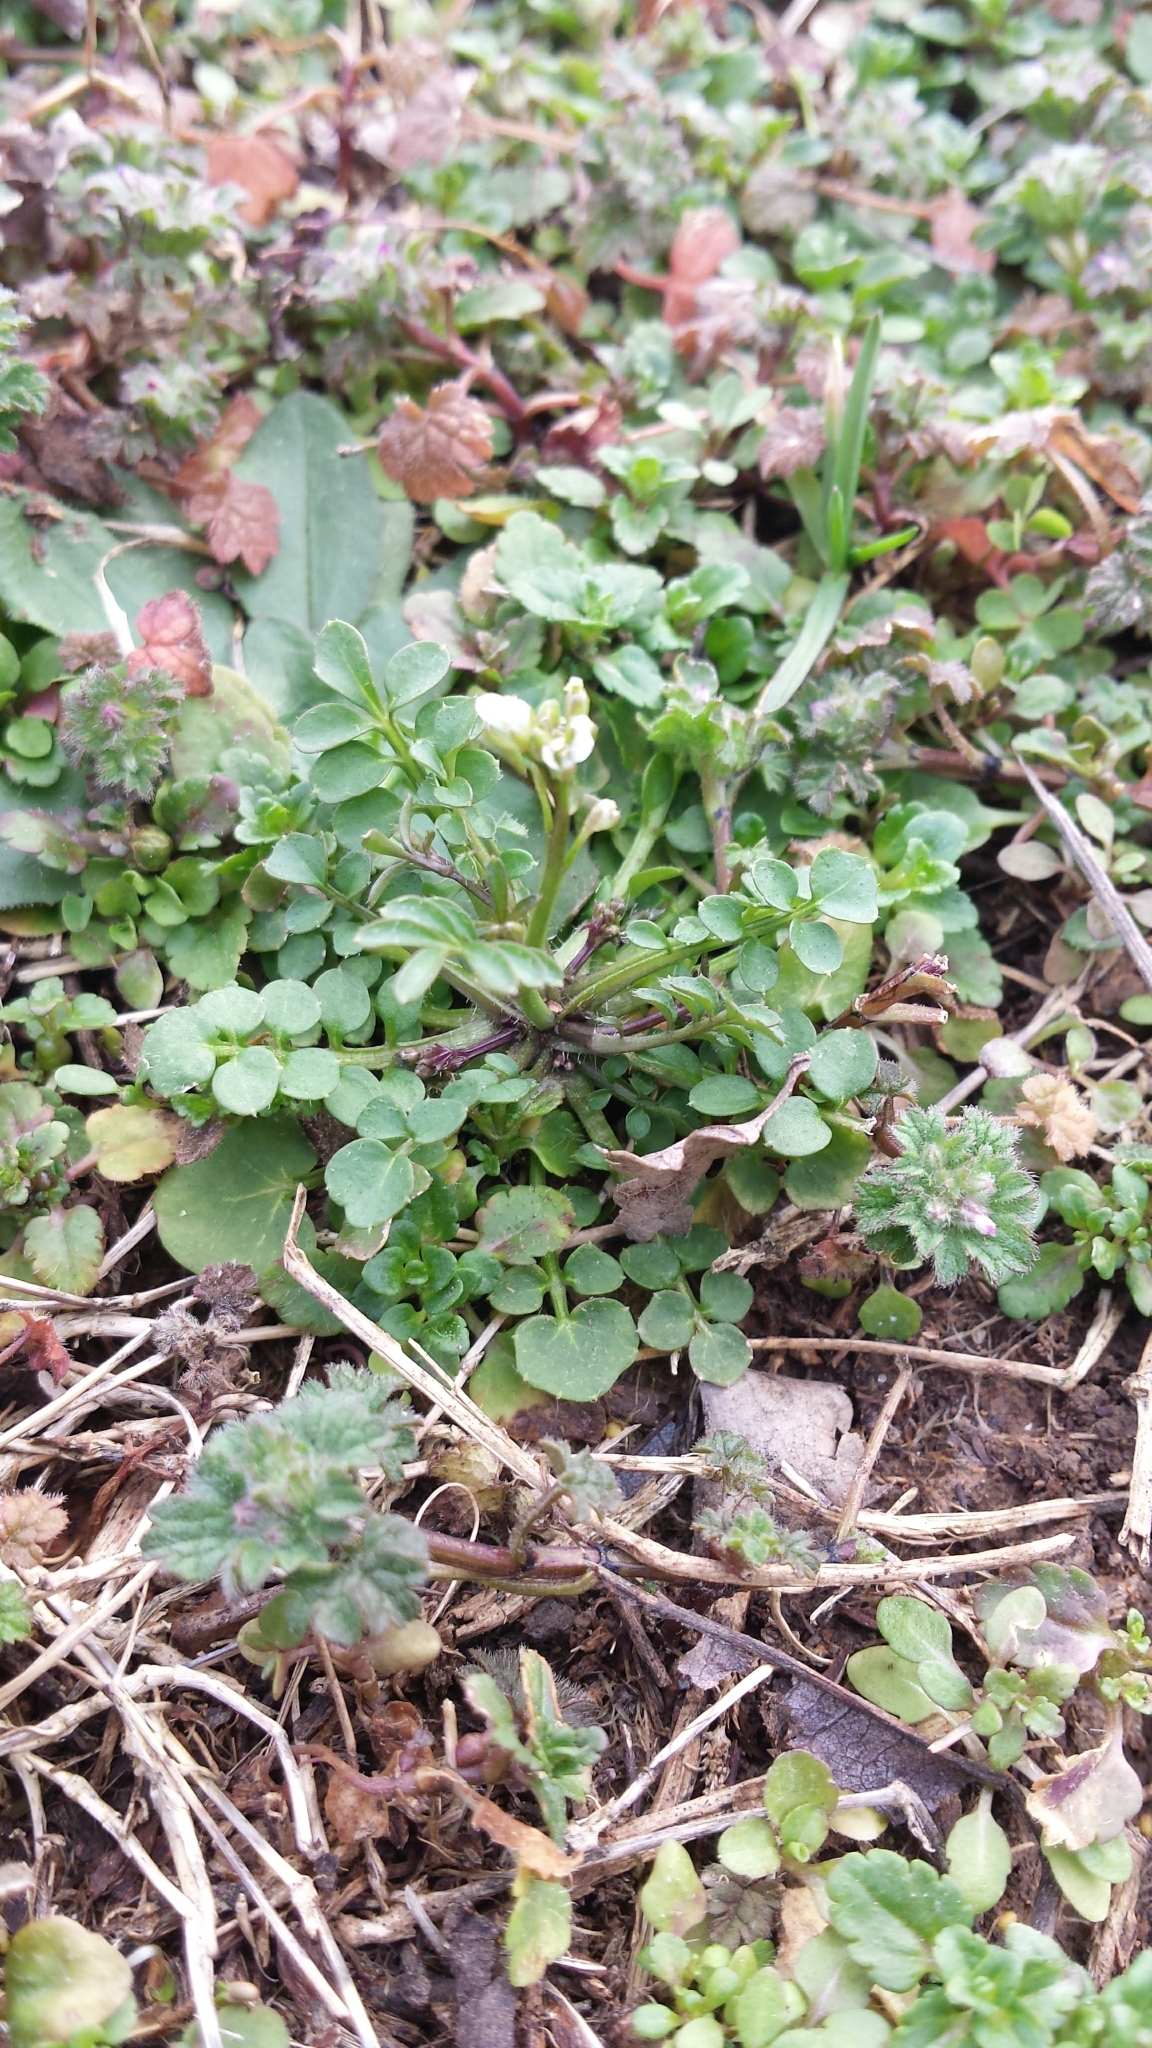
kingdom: Plantae
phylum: Tracheophyta
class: Magnoliopsida
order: Brassicales
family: Brassicaceae
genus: Cardamine
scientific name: Cardamine hirsuta
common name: Hairy bittercress
